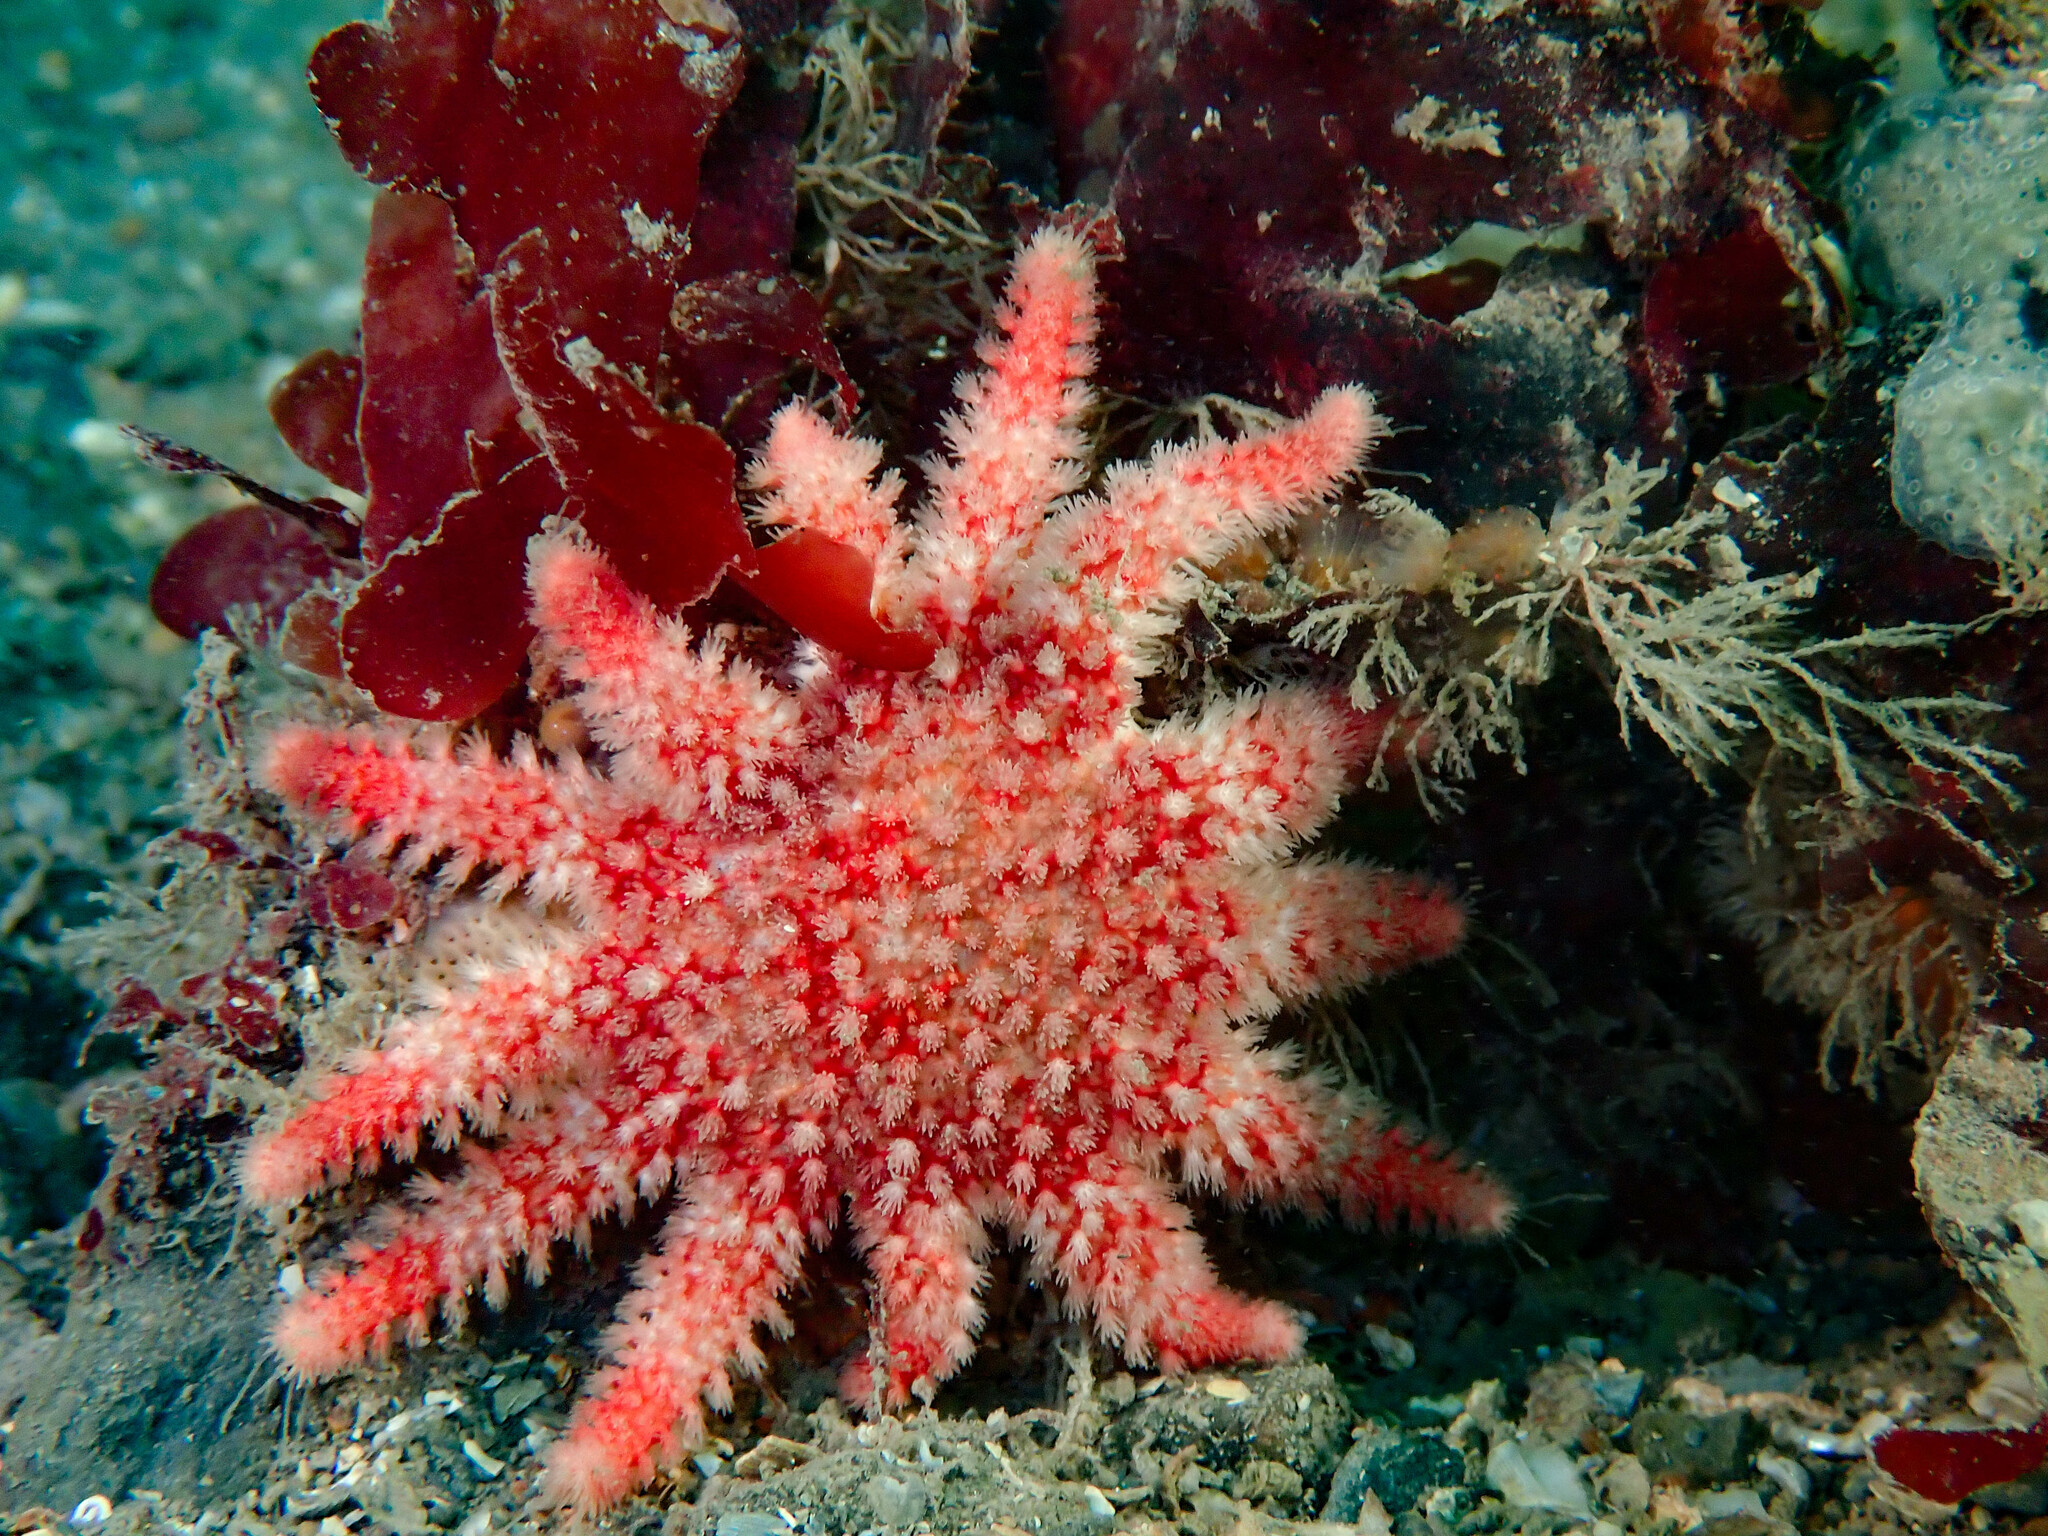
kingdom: Animalia
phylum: Echinodermata
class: Asteroidea
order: Valvatida
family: Solasteridae
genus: Crossaster
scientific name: Crossaster papposus
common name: Common sun star
